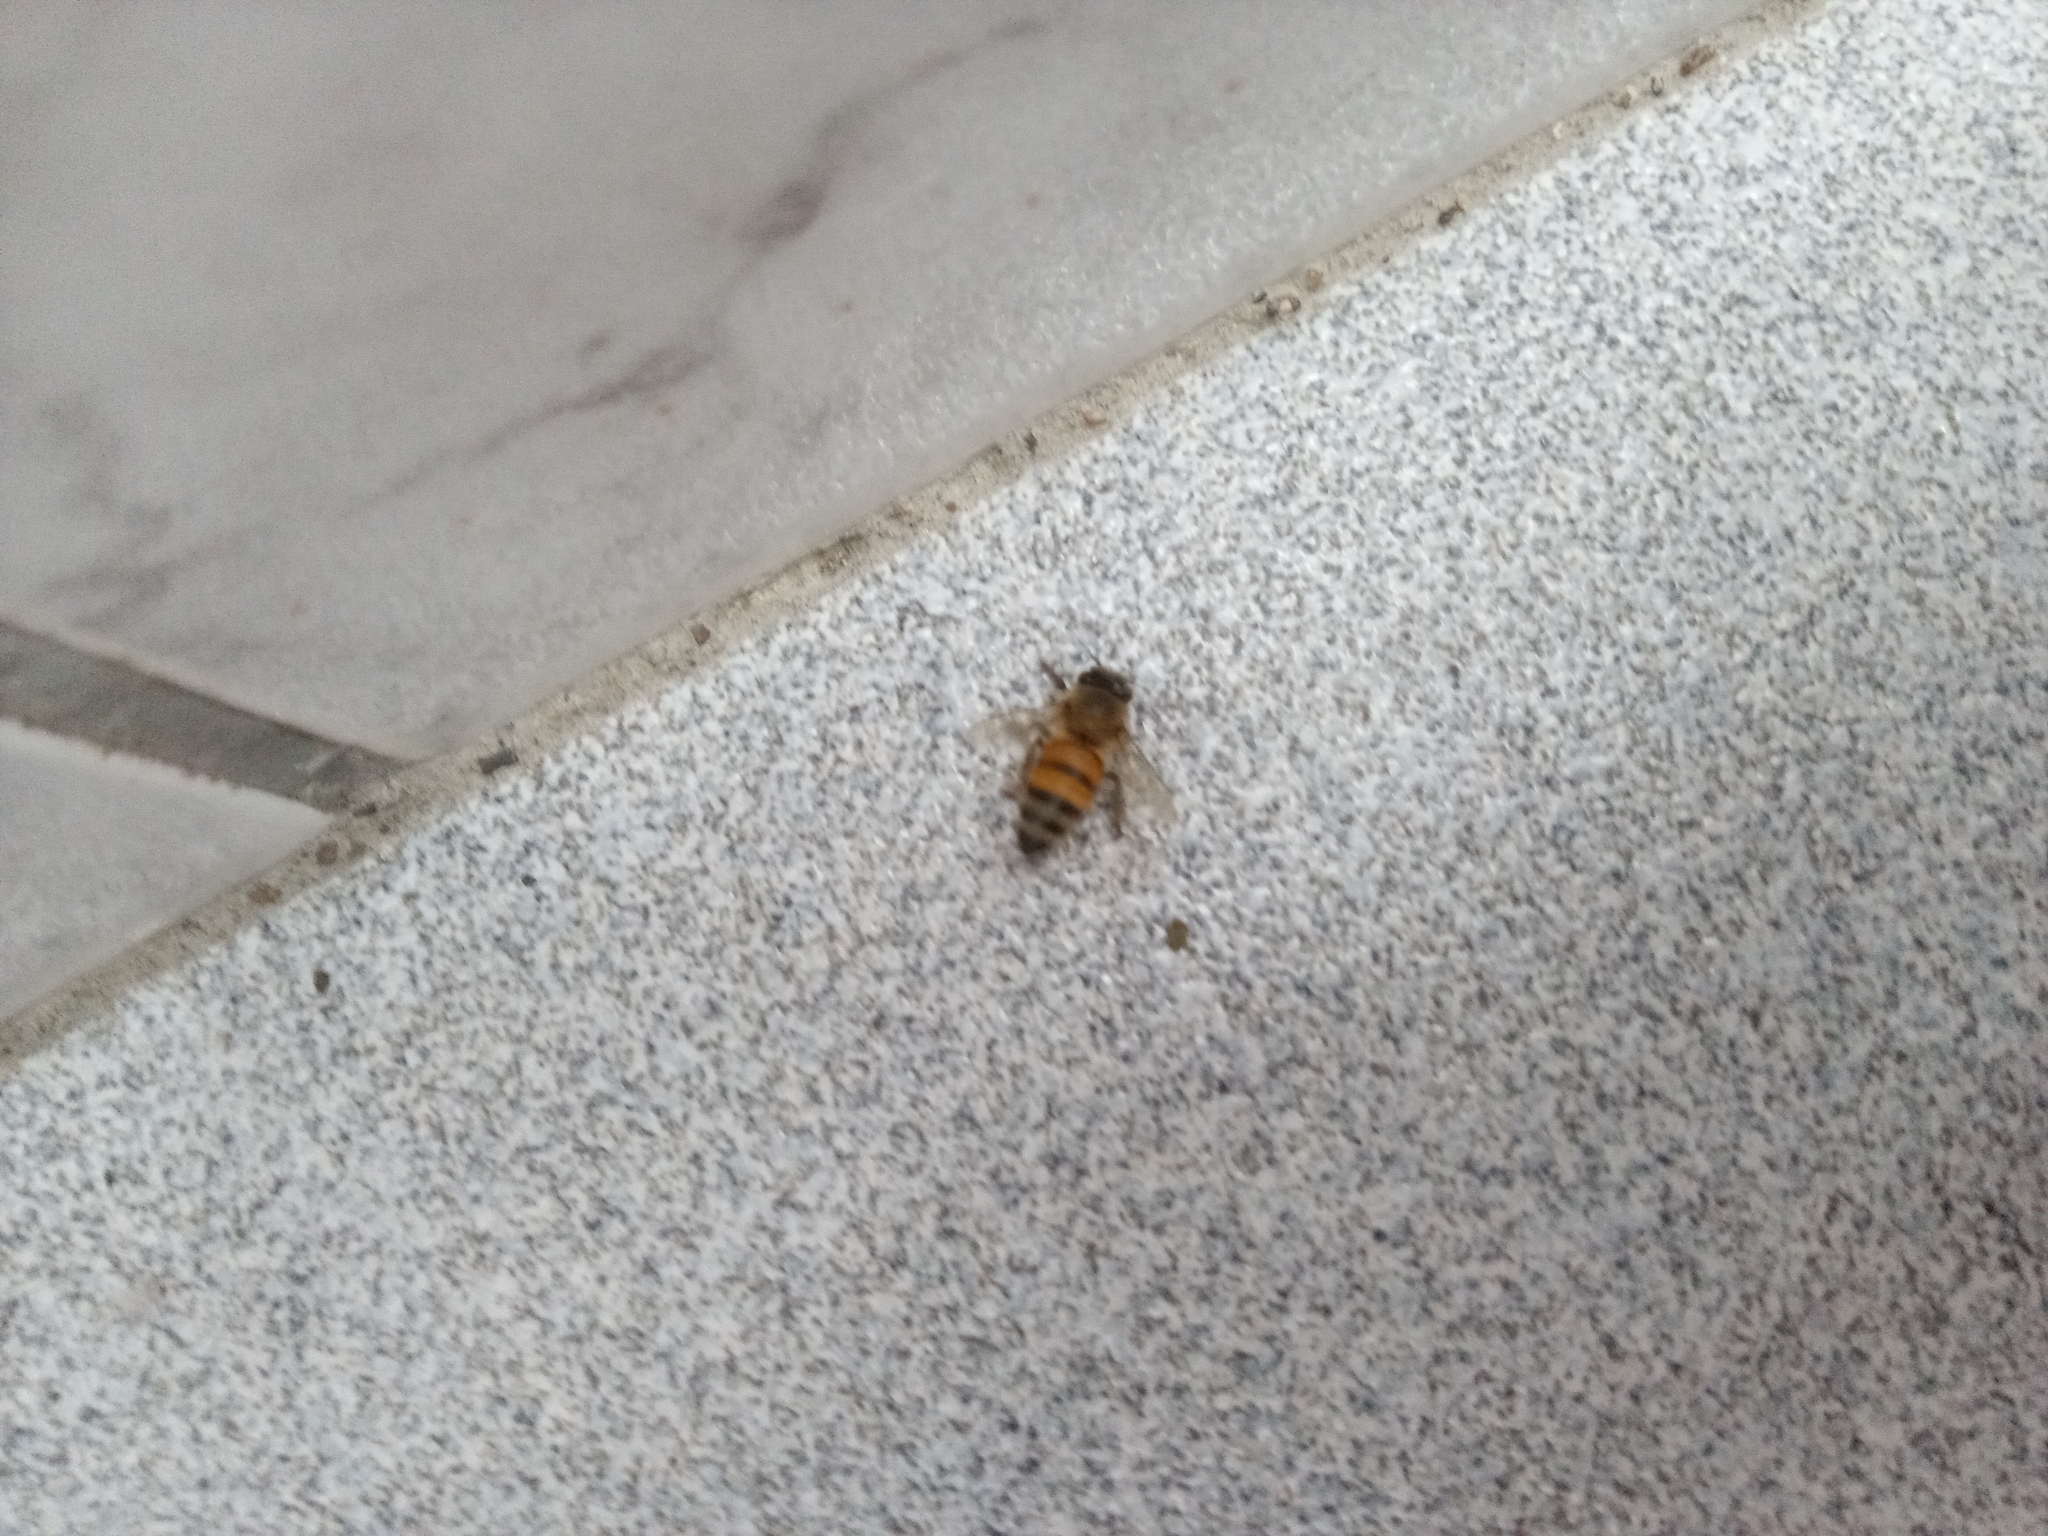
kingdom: Animalia
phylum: Arthropoda
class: Insecta
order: Hymenoptera
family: Apidae
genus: Apis
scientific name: Apis mellifera
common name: Honey bee
